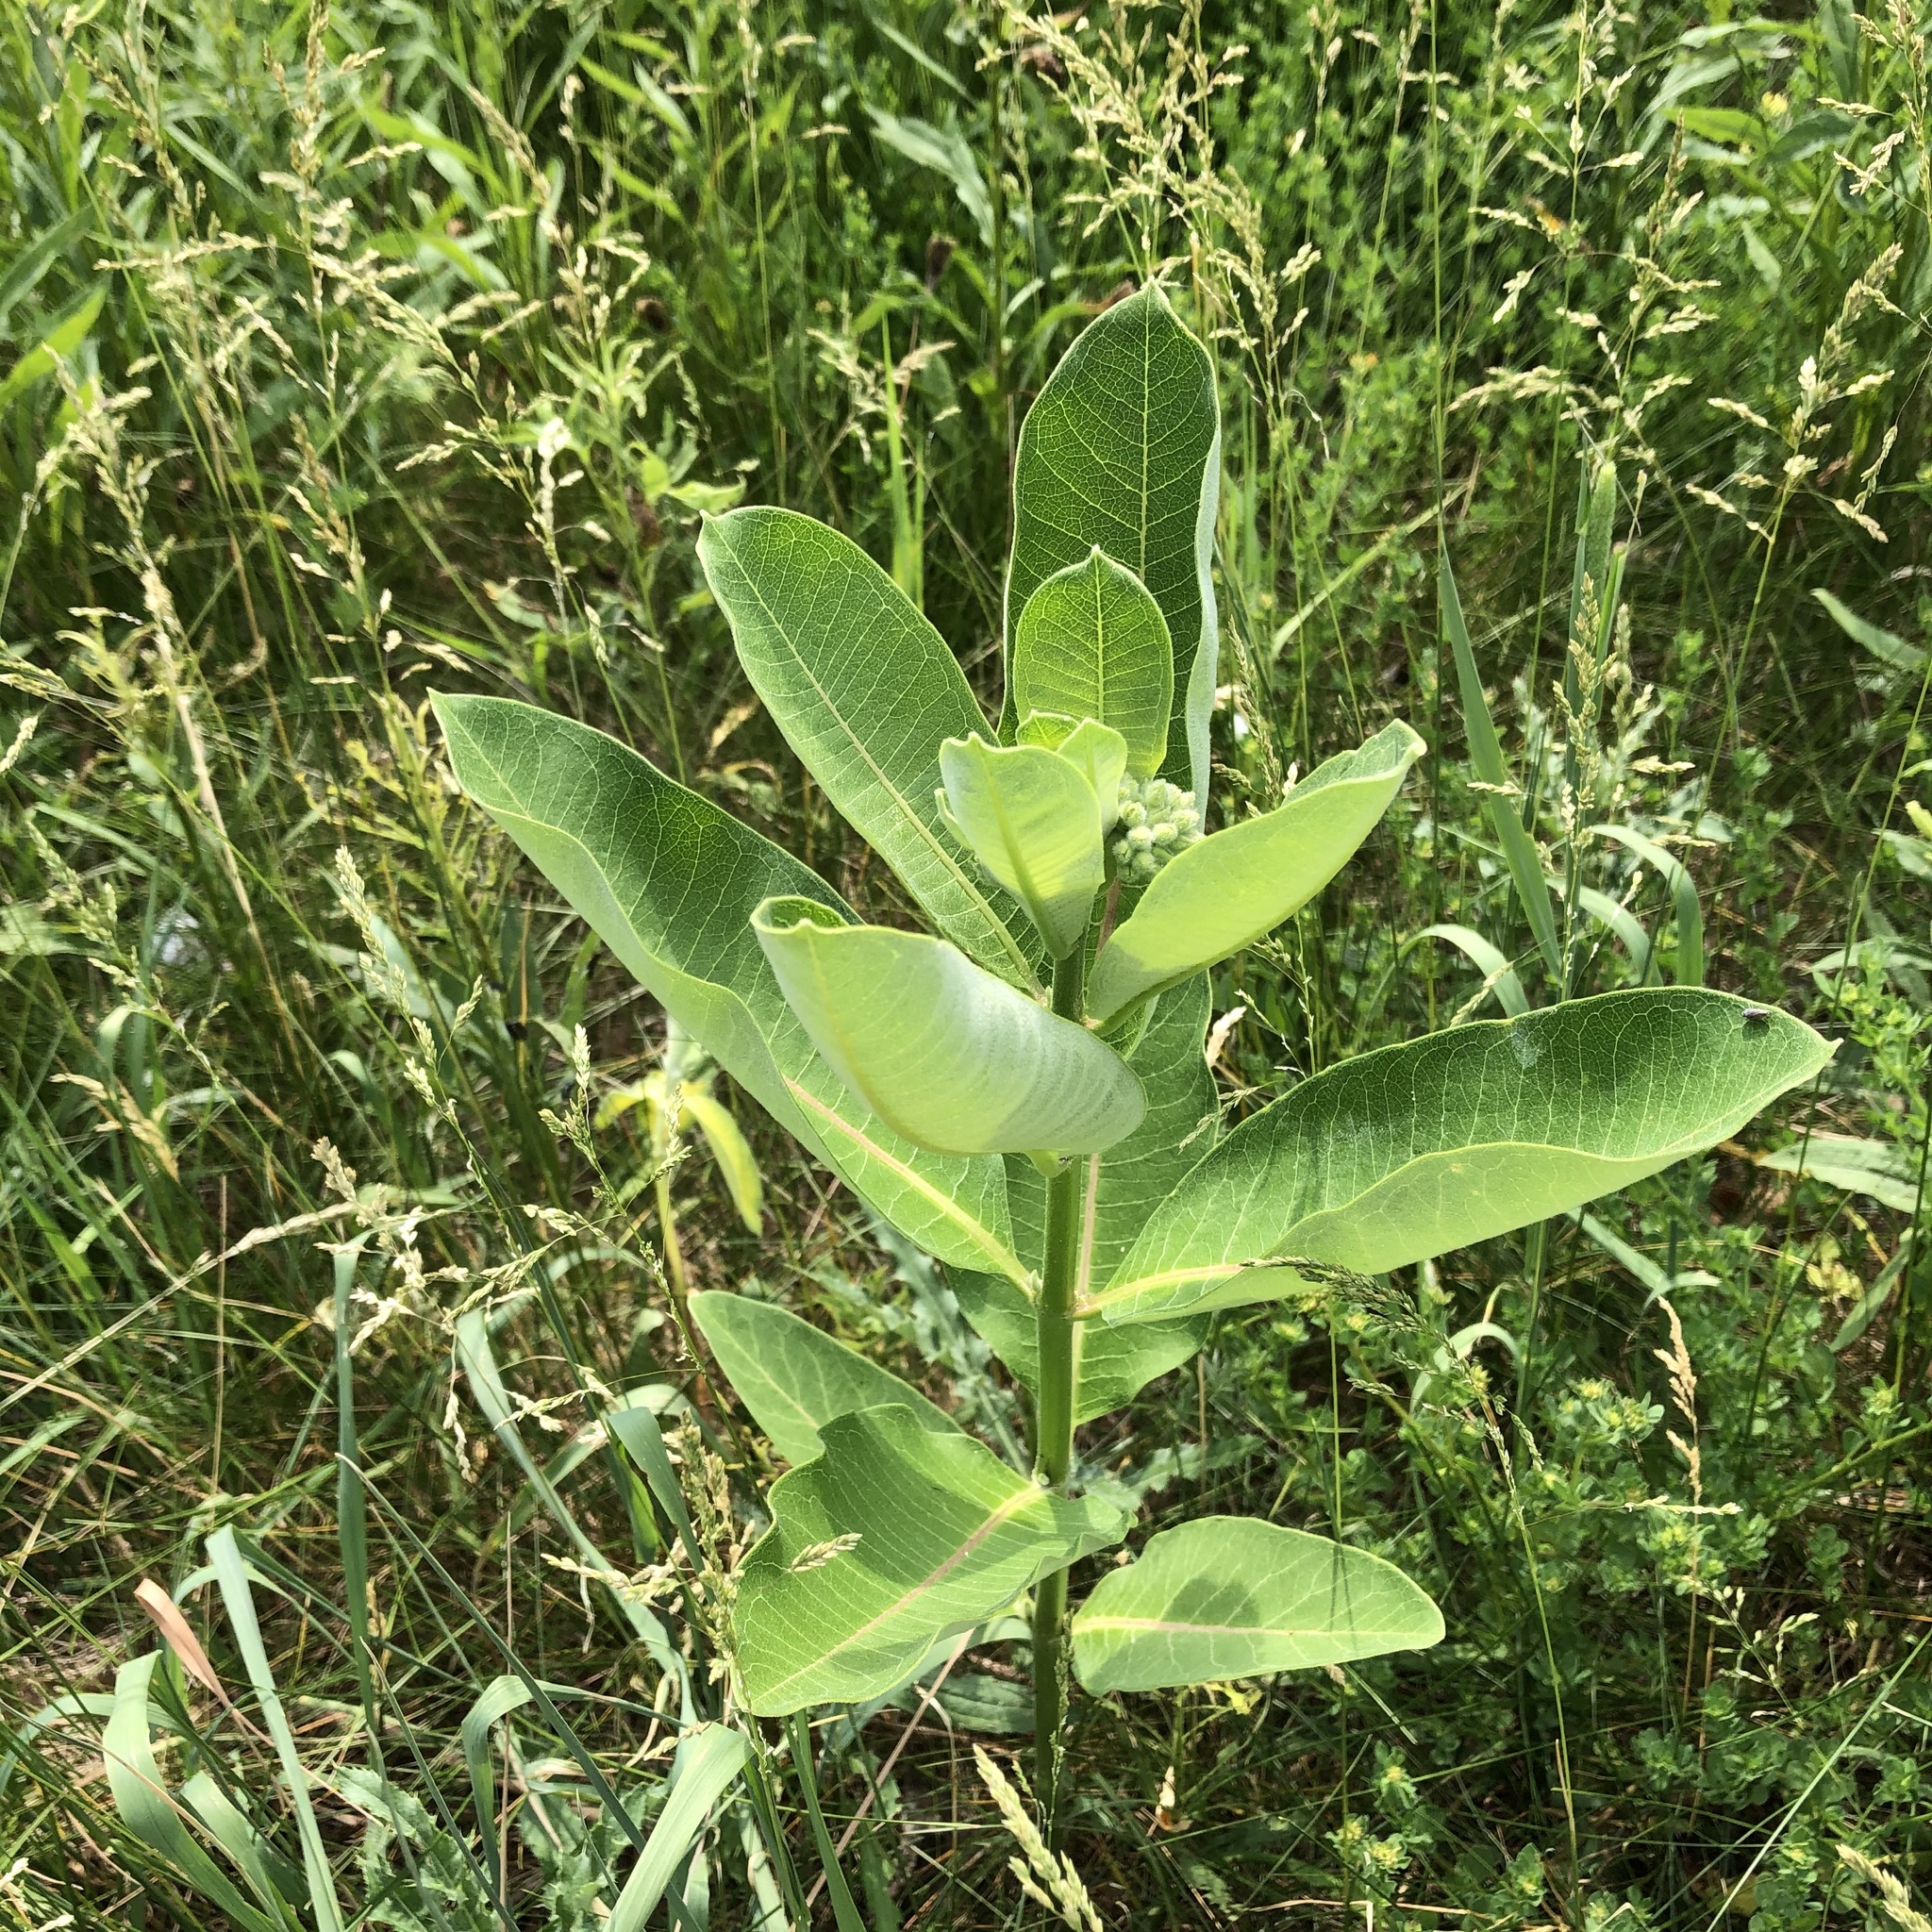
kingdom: Plantae
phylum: Tracheophyta
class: Magnoliopsida
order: Gentianales
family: Apocynaceae
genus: Asclepias
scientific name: Asclepias syriaca
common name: Common milkweed
